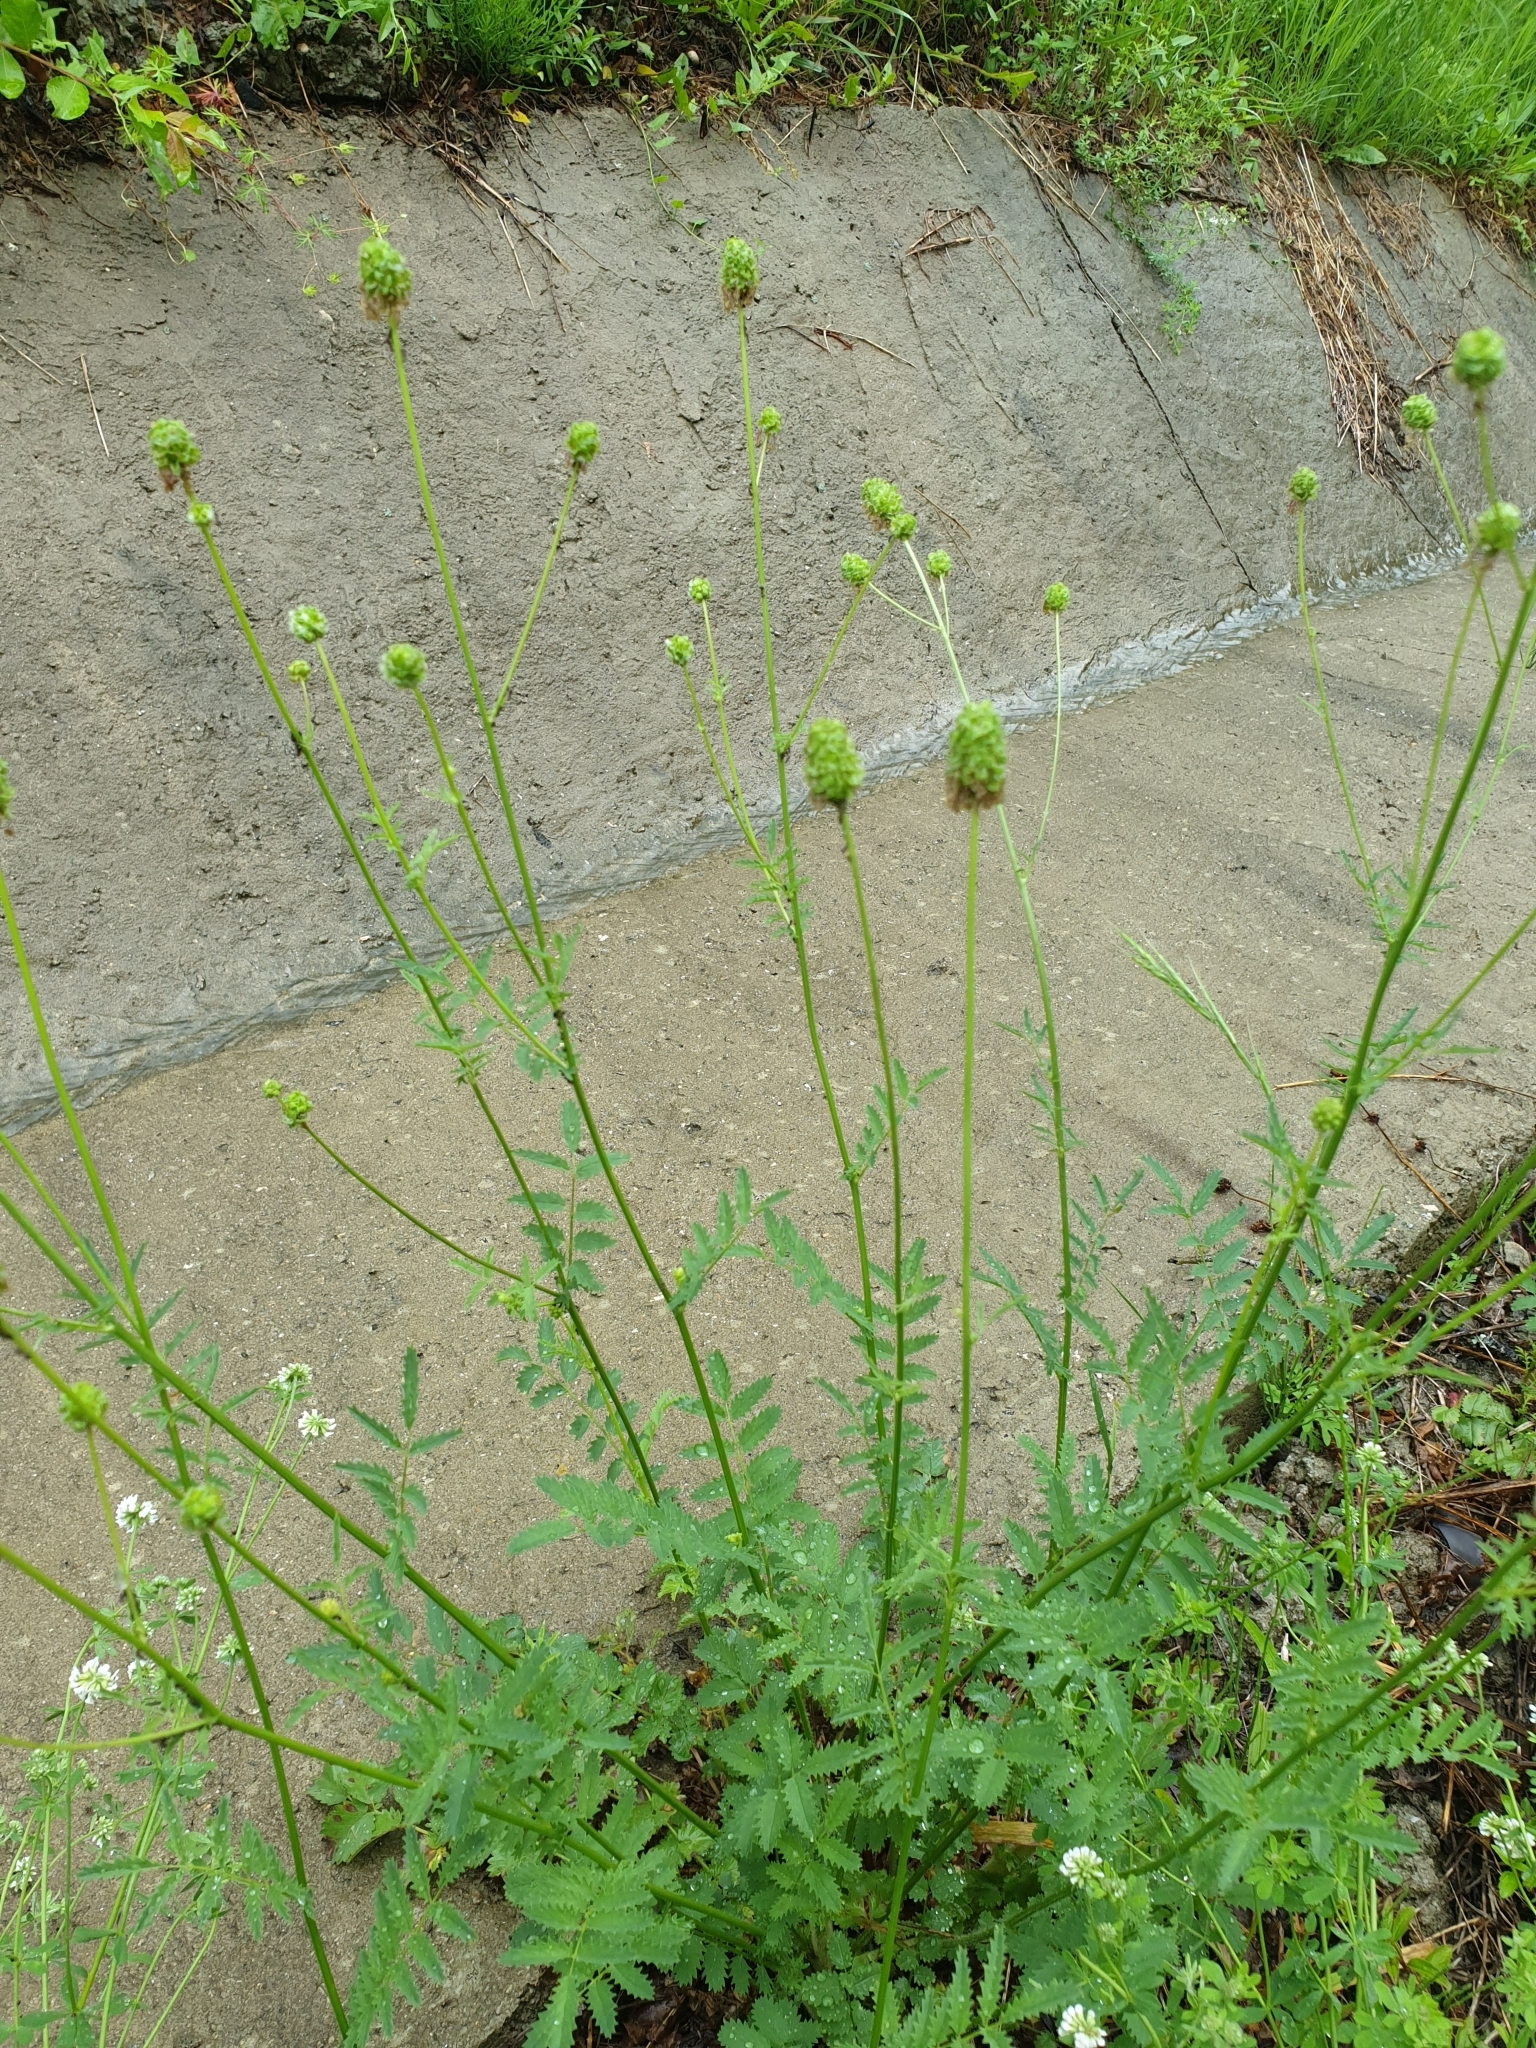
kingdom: Plantae
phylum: Tracheophyta
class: Magnoliopsida
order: Rosales
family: Rosaceae
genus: Poterium
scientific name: Poterium sanguisorba
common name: Salad burnet
